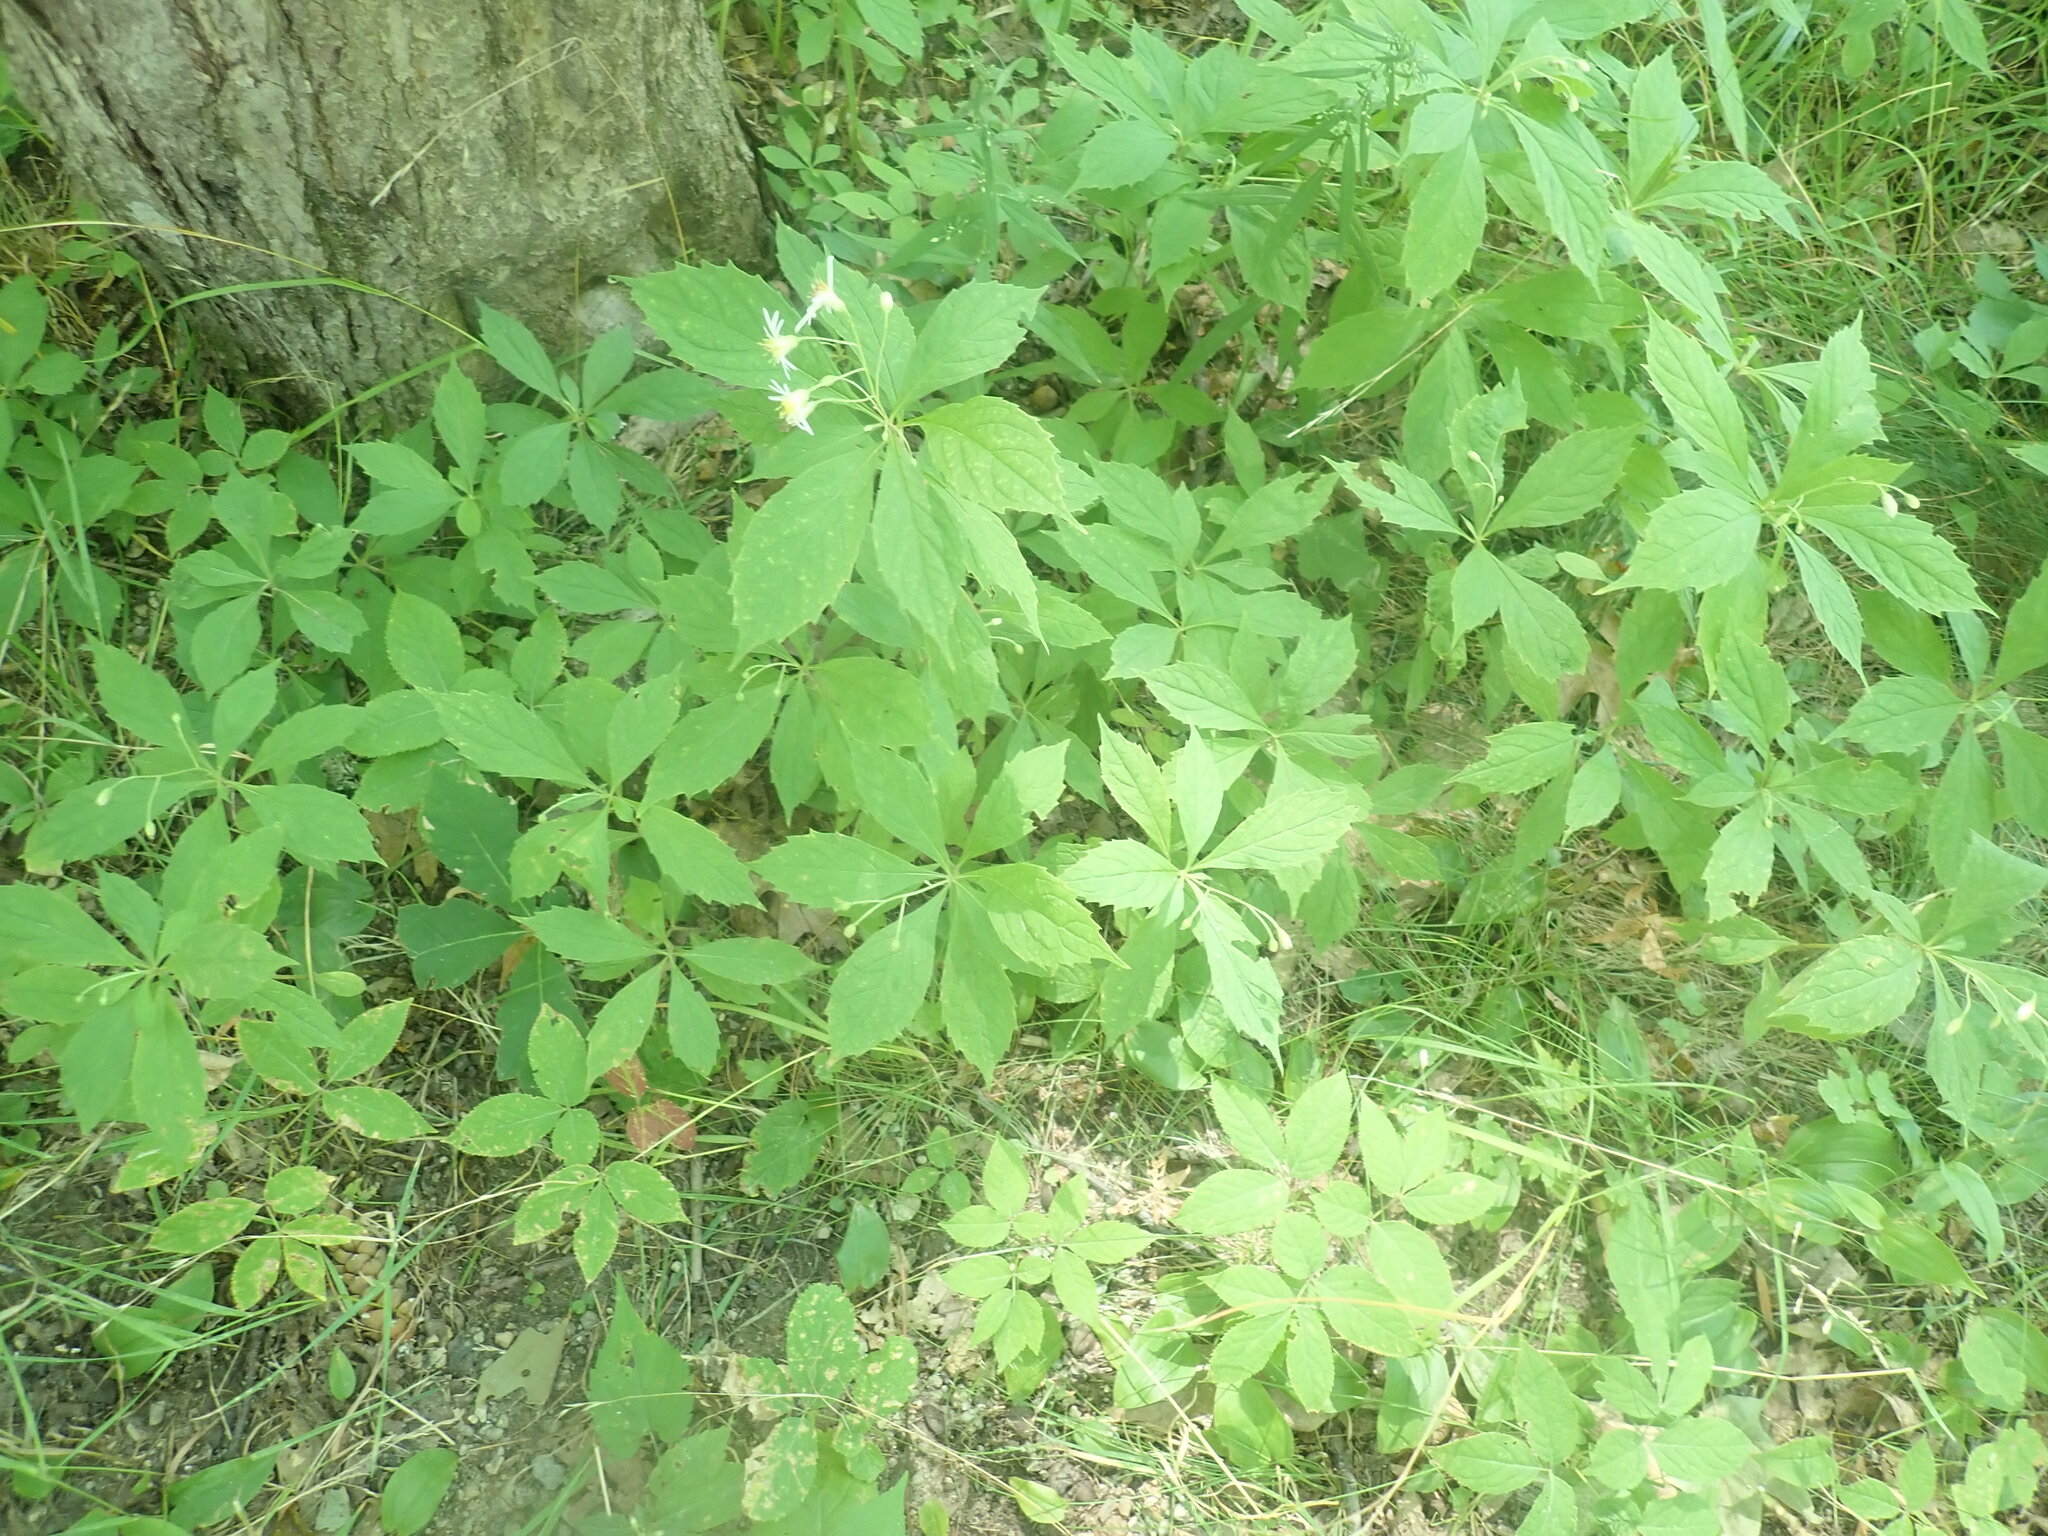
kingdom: Plantae
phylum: Tracheophyta
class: Magnoliopsida
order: Asterales
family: Asteraceae
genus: Oclemena
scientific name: Oclemena acuminata
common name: Mountain aster
